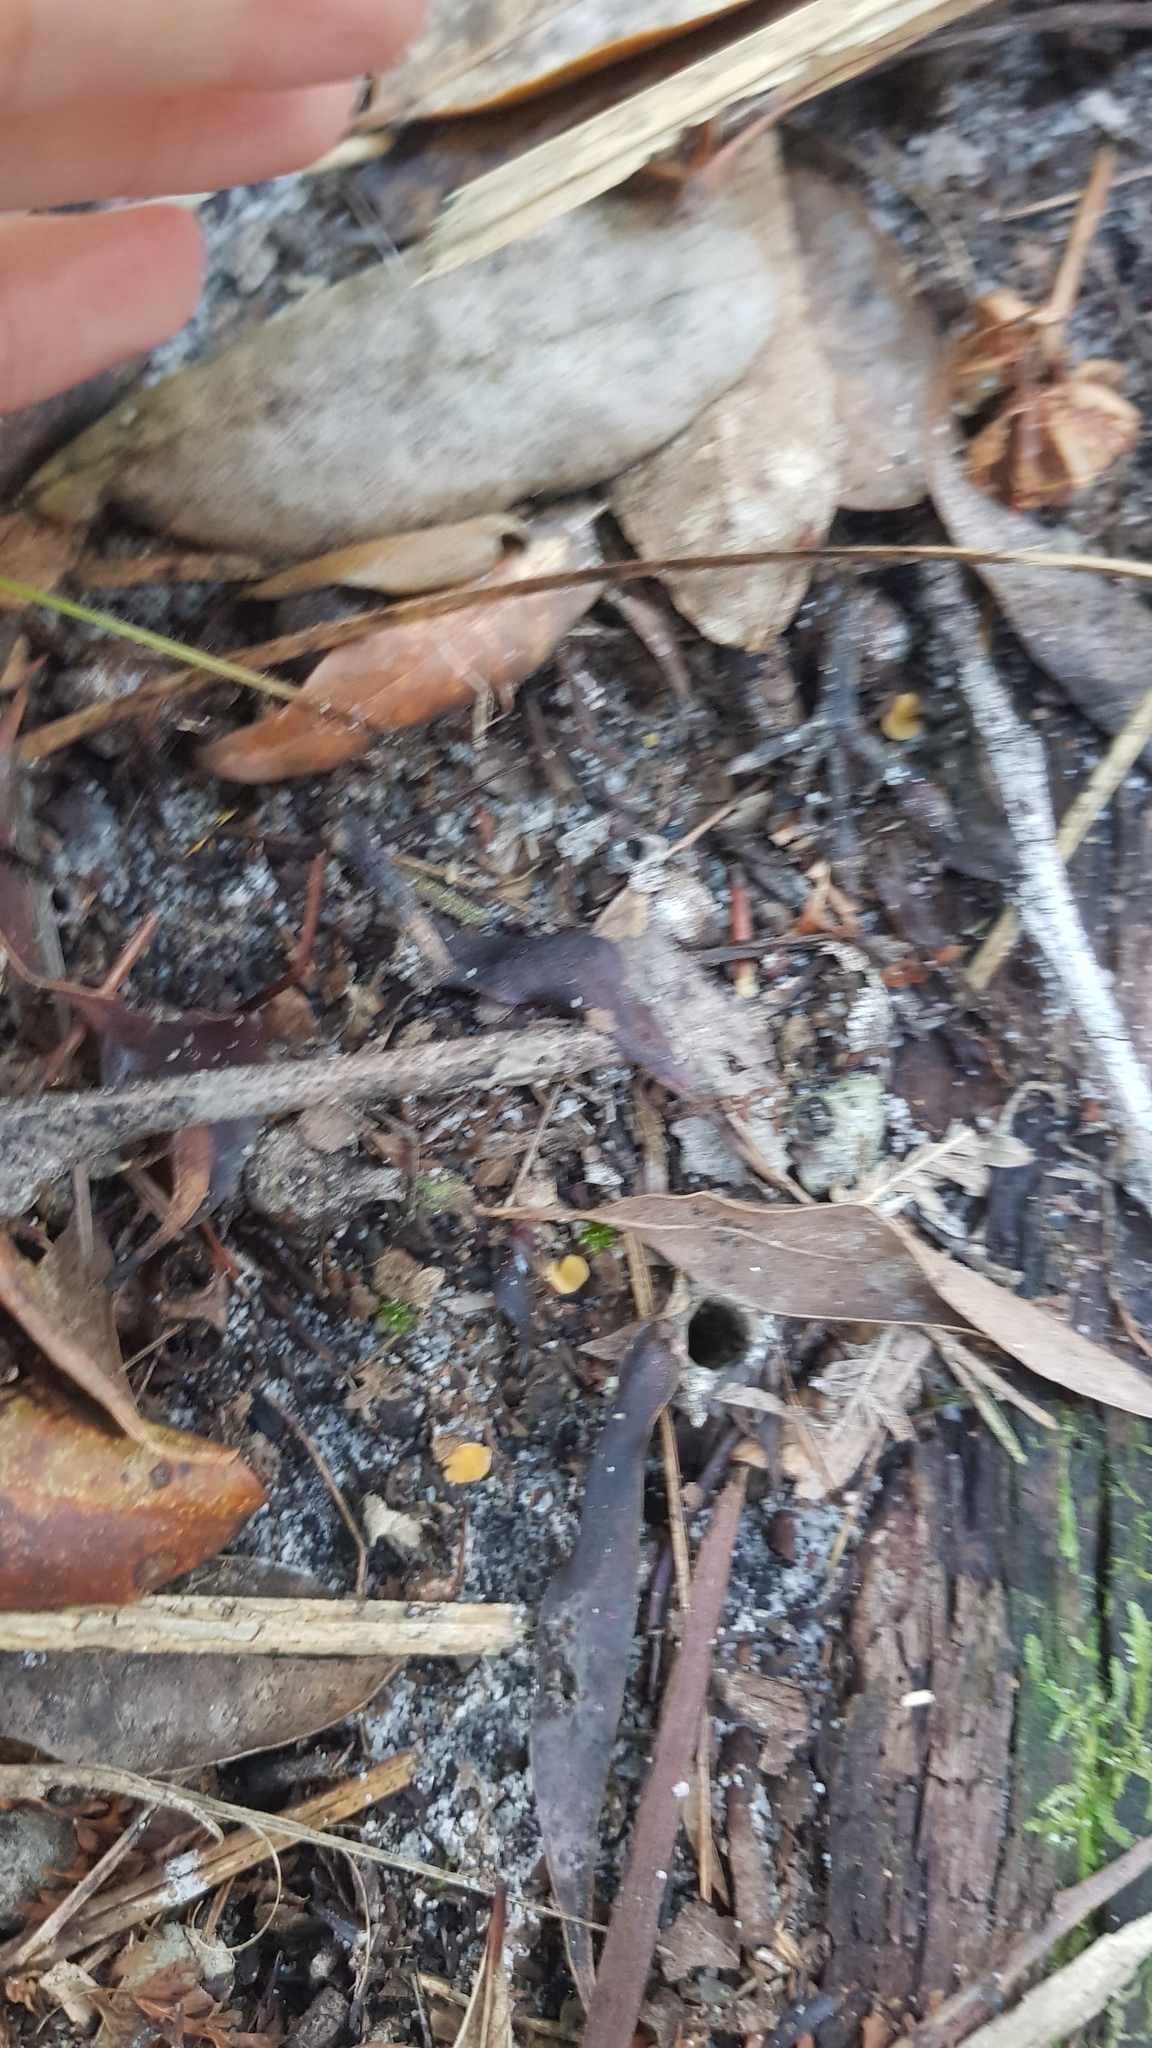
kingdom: Fungi
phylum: Ascomycota
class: Leotiomycetes
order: Helotiales
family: Helotiaceae
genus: Phaeohelotium
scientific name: Phaeohelotium baileyanum
